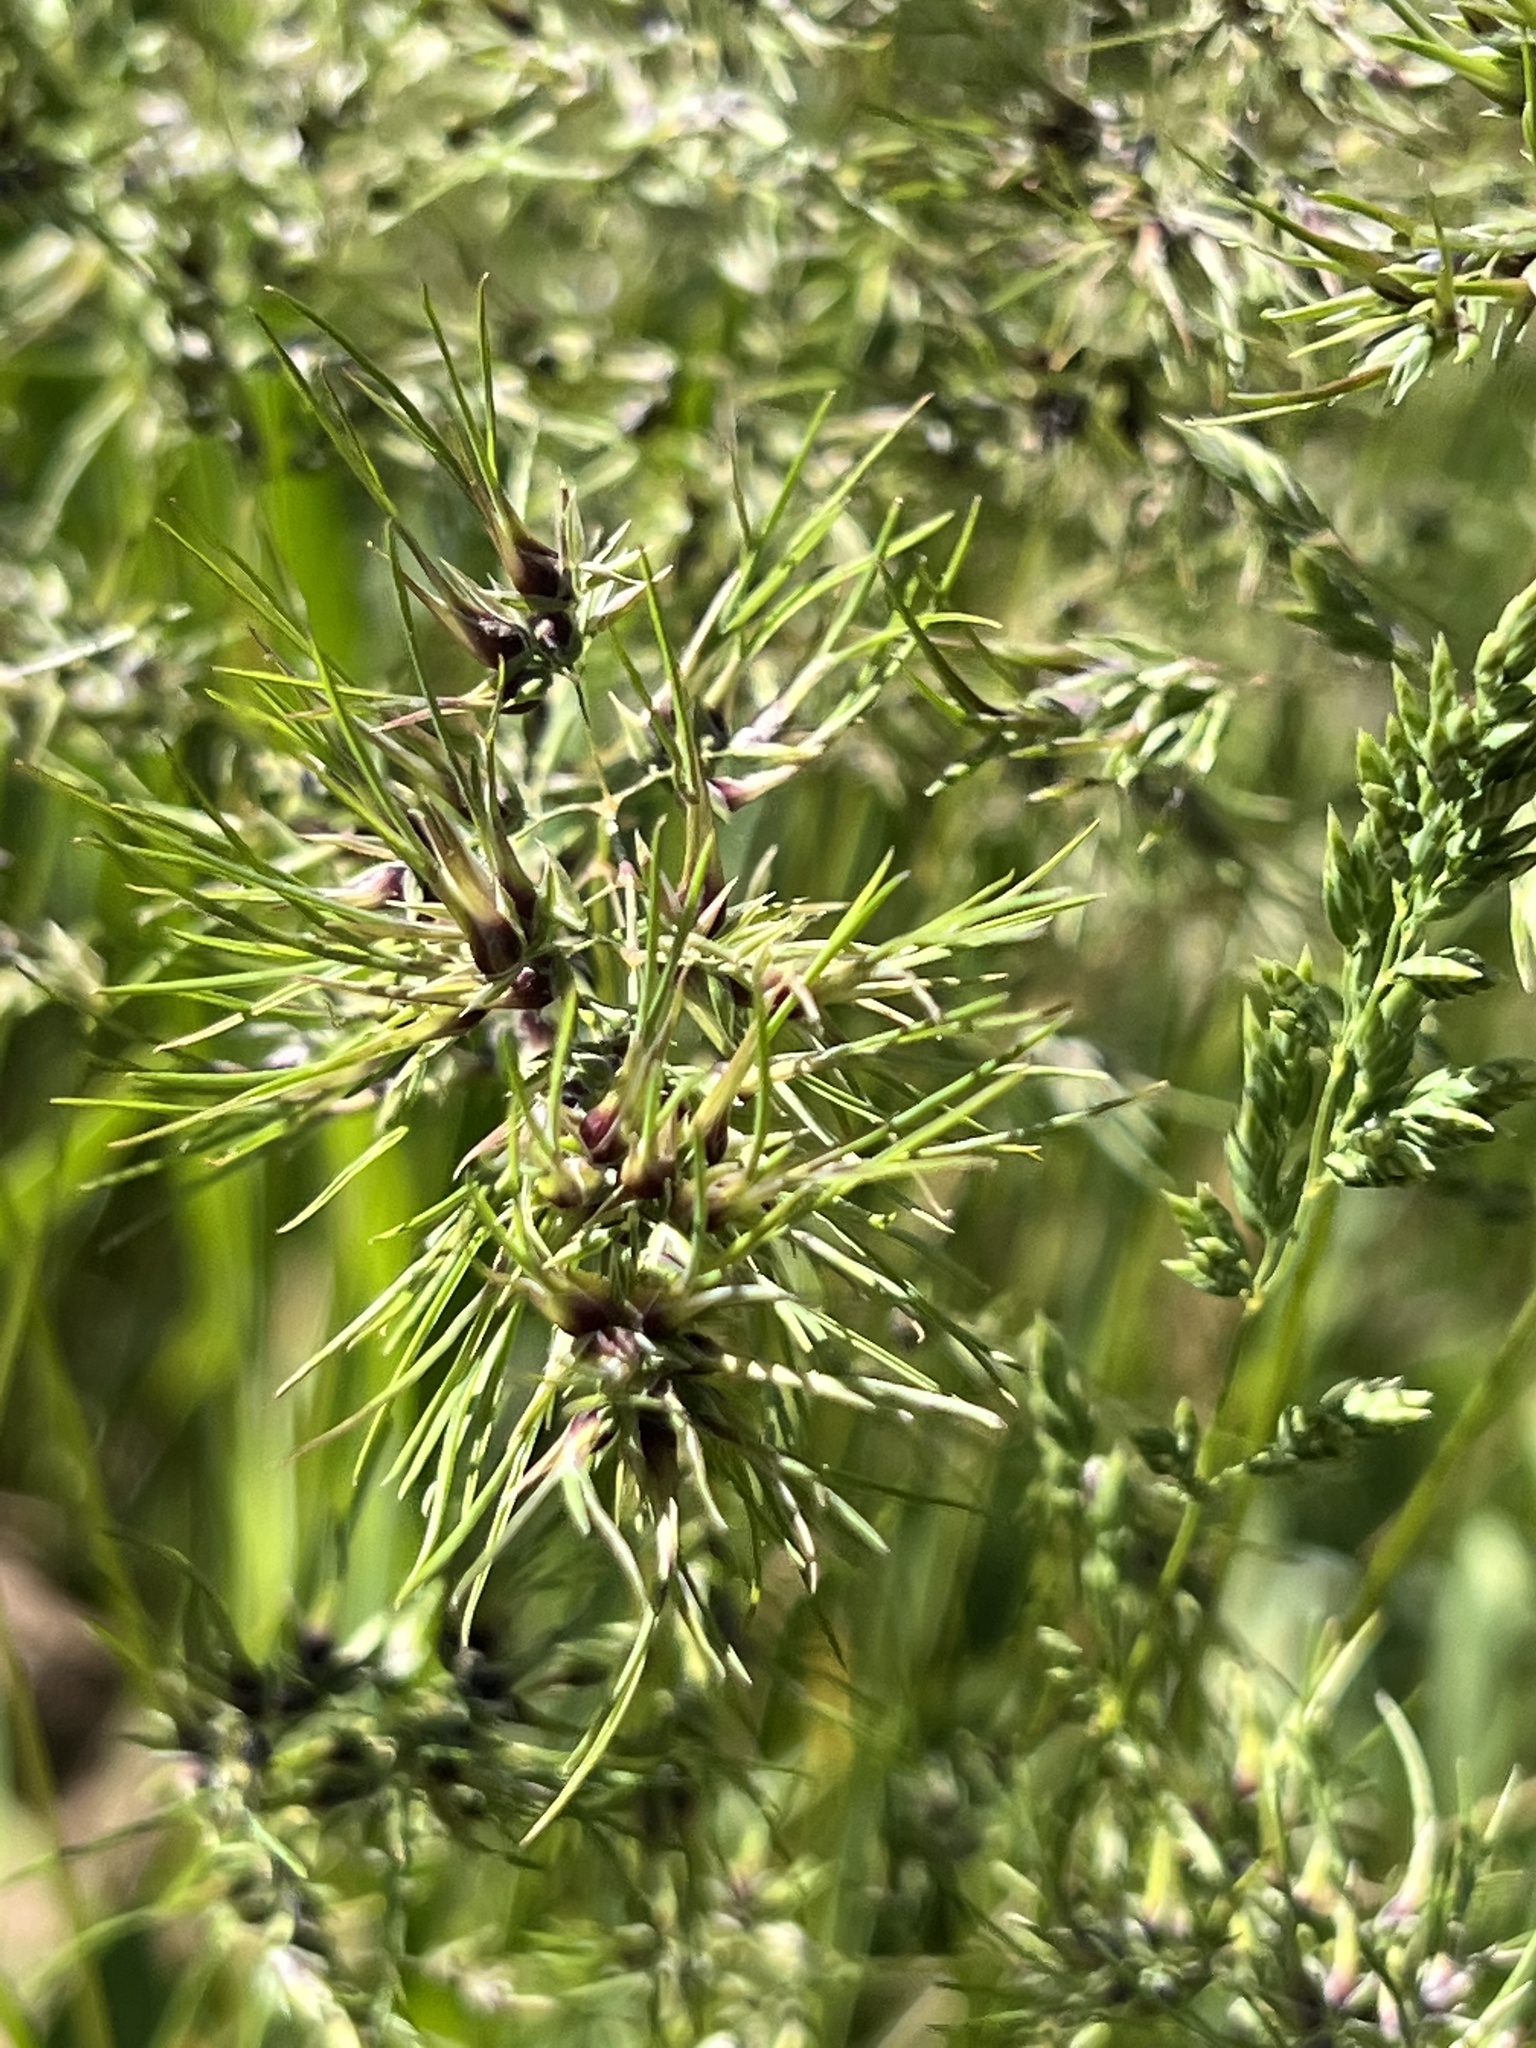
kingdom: Plantae
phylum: Tracheophyta
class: Liliopsida
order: Poales
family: Poaceae
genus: Poa
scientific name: Poa bulbosa
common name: Bulbous bluegrass
